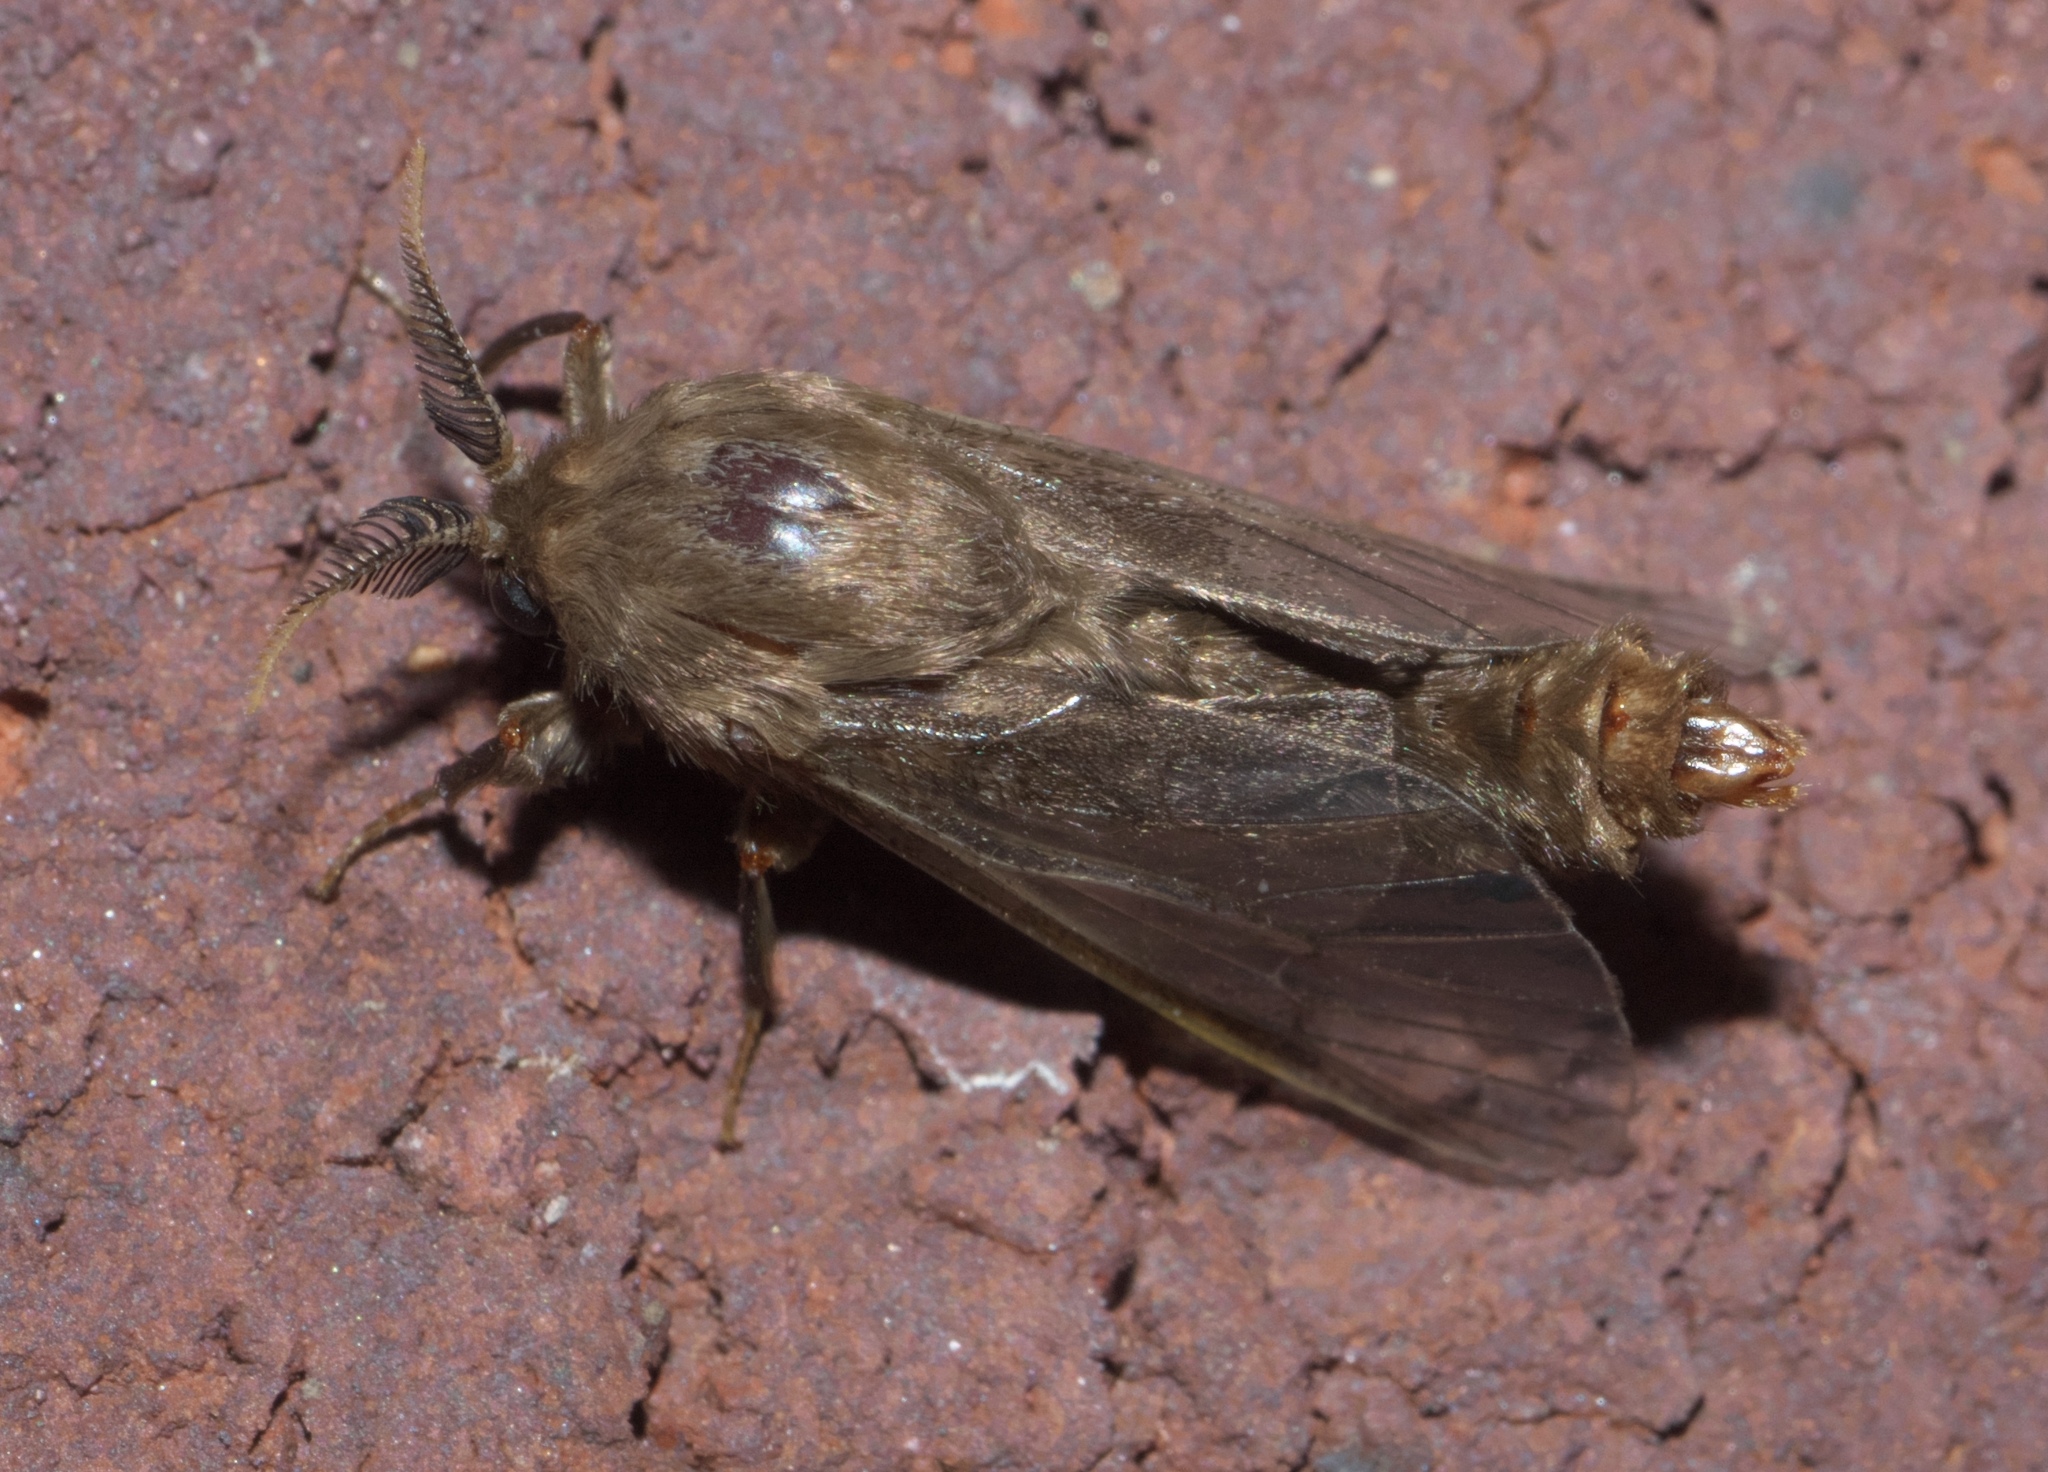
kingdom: Animalia
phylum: Arthropoda
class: Insecta
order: Lepidoptera
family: Psychidae
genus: Thyridopteryx
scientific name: Thyridopteryx ephemeraeformis
